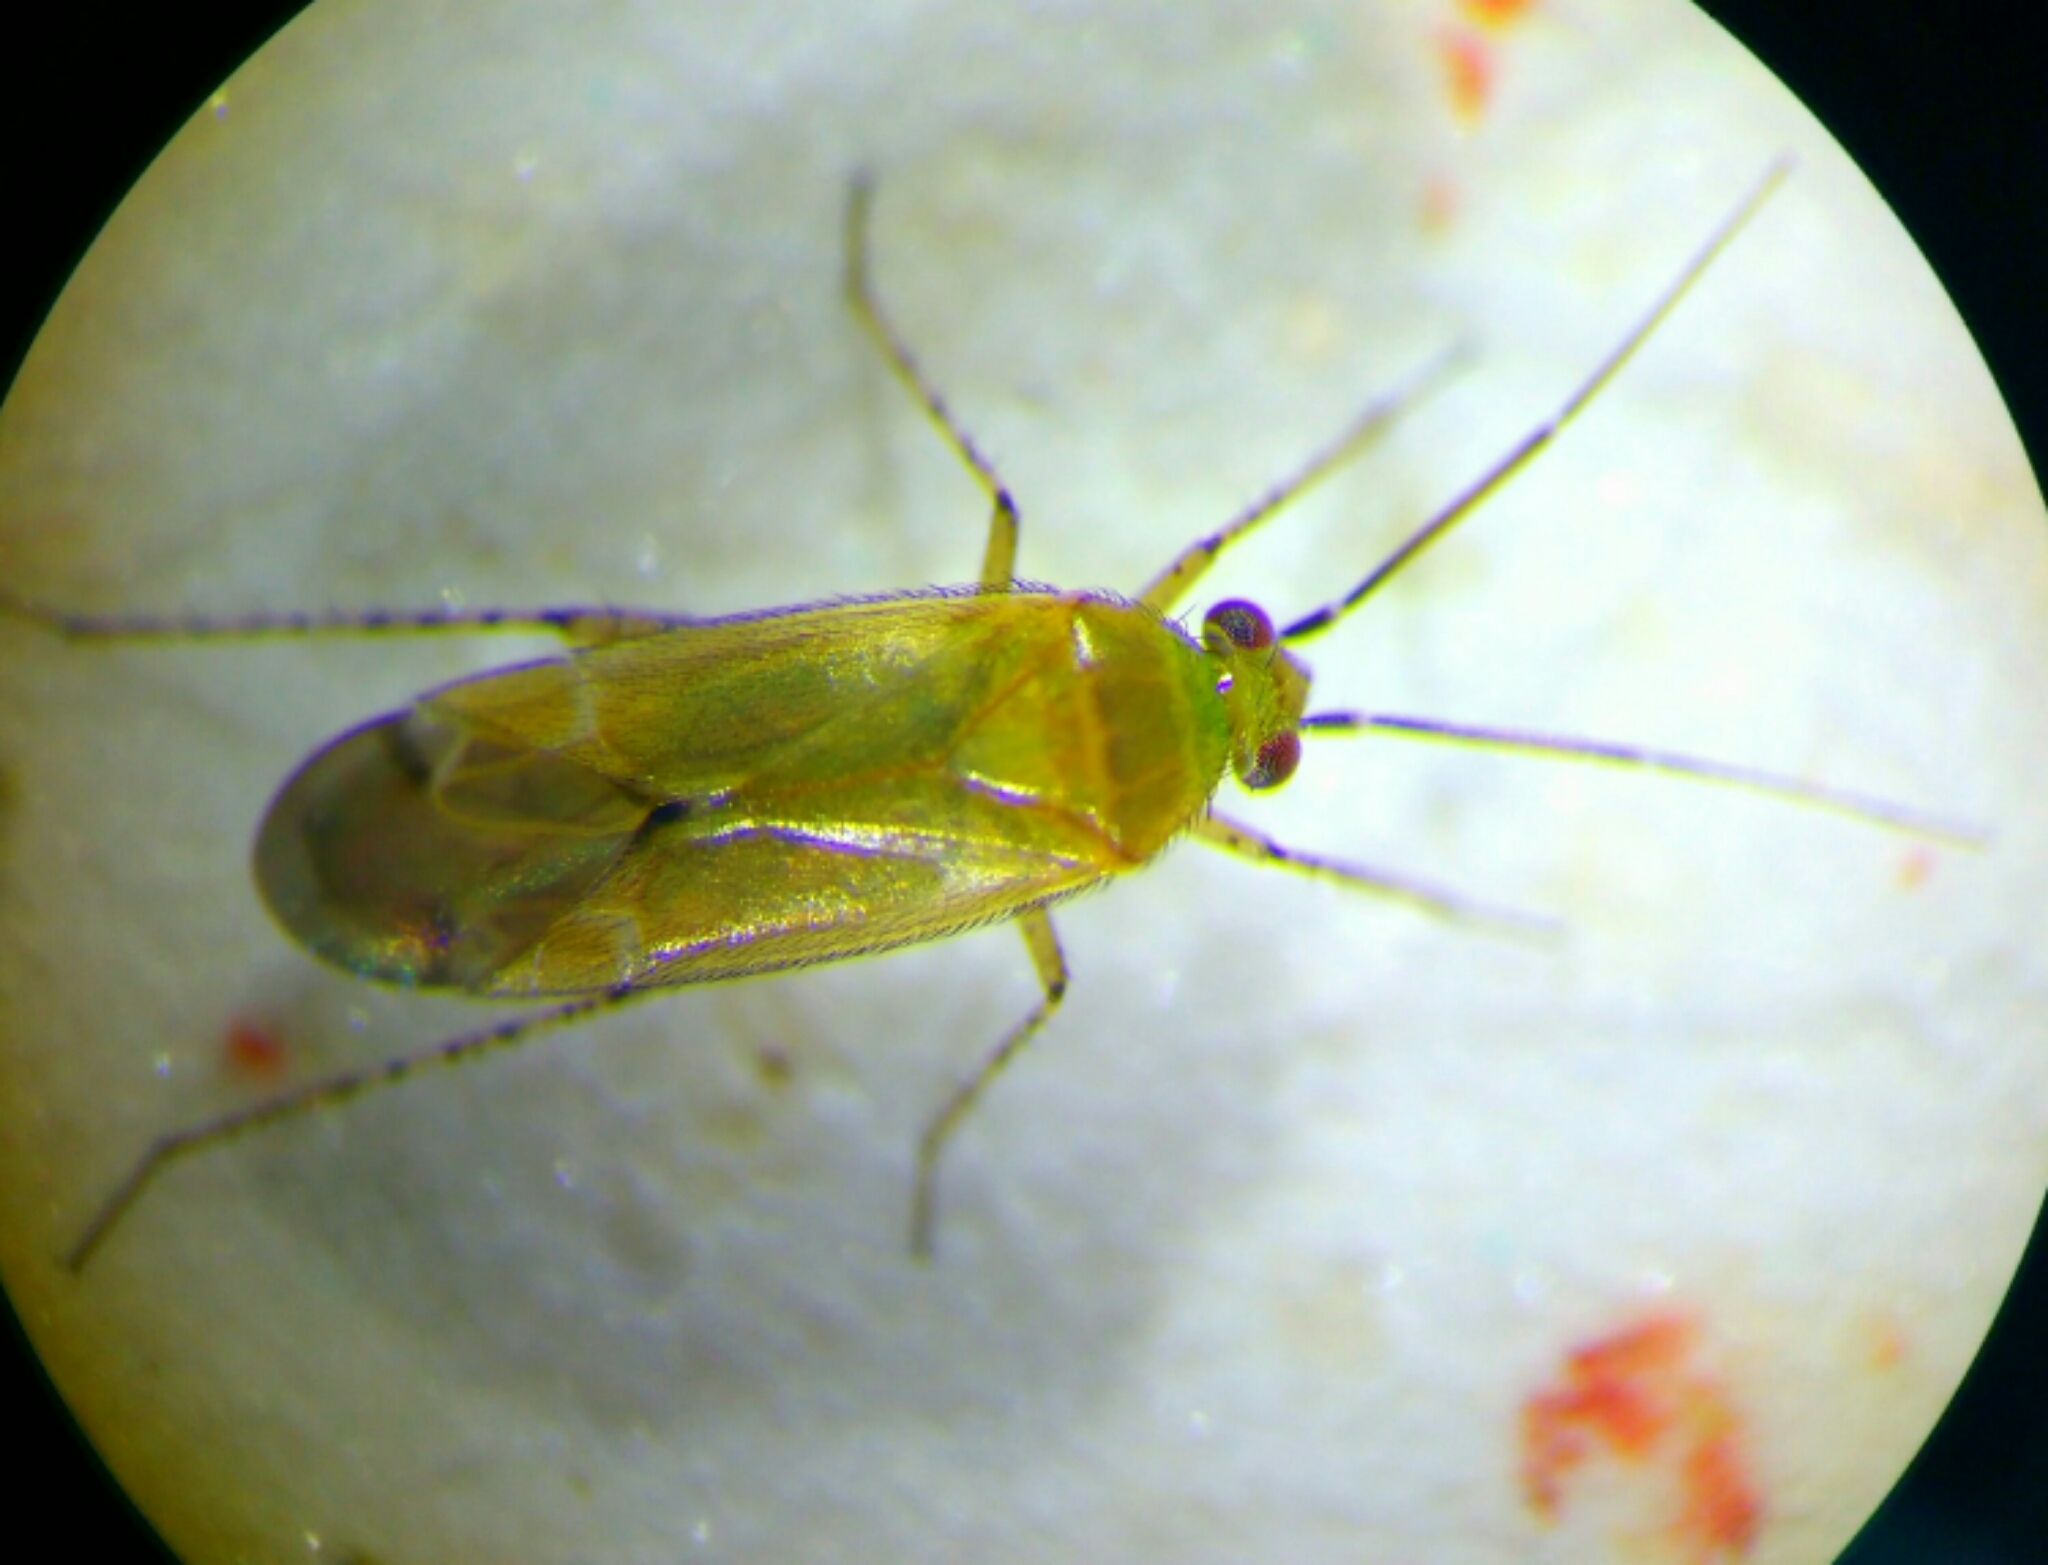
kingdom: Animalia
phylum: Arthropoda
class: Insecta
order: Hemiptera
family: Miridae
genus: Plagiognathus
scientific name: Plagiognathus fulvipennis
